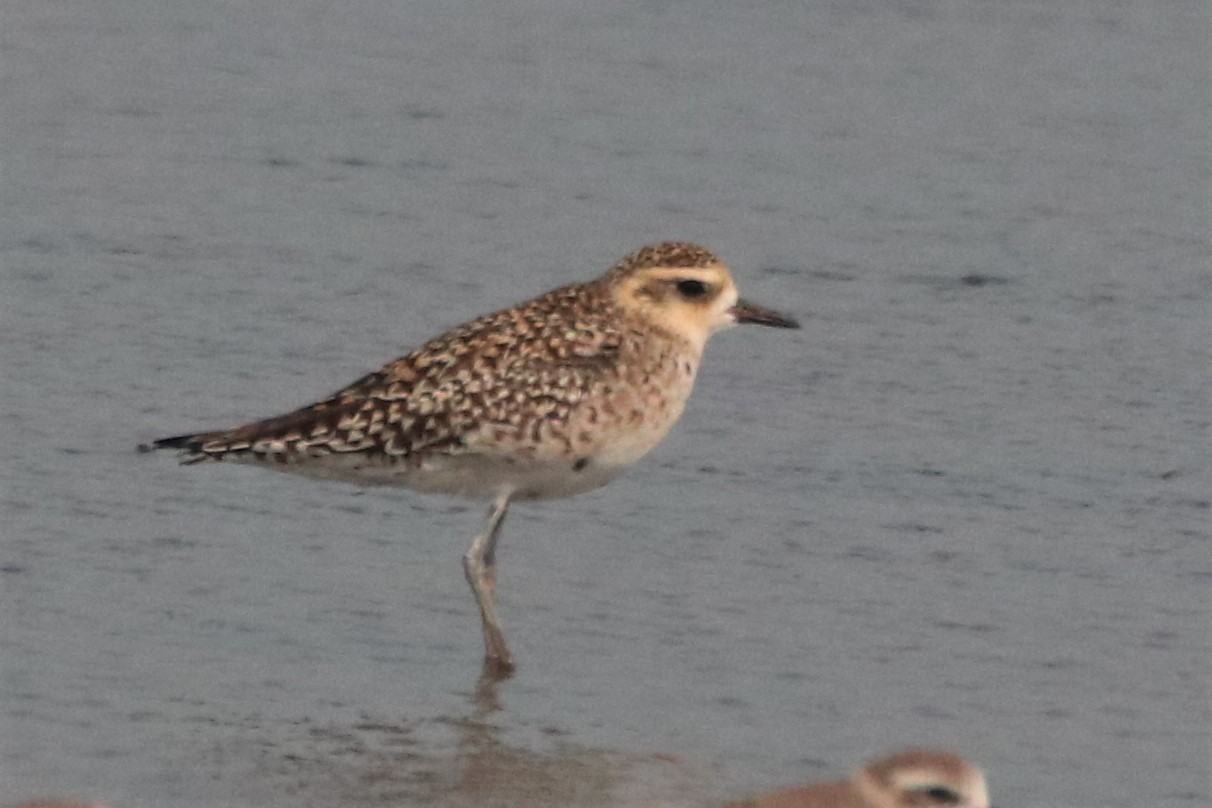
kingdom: Animalia
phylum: Chordata
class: Aves
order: Charadriiformes
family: Charadriidae
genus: Pluvialis
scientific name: Pluvialis fulva
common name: Pacific golden plover
